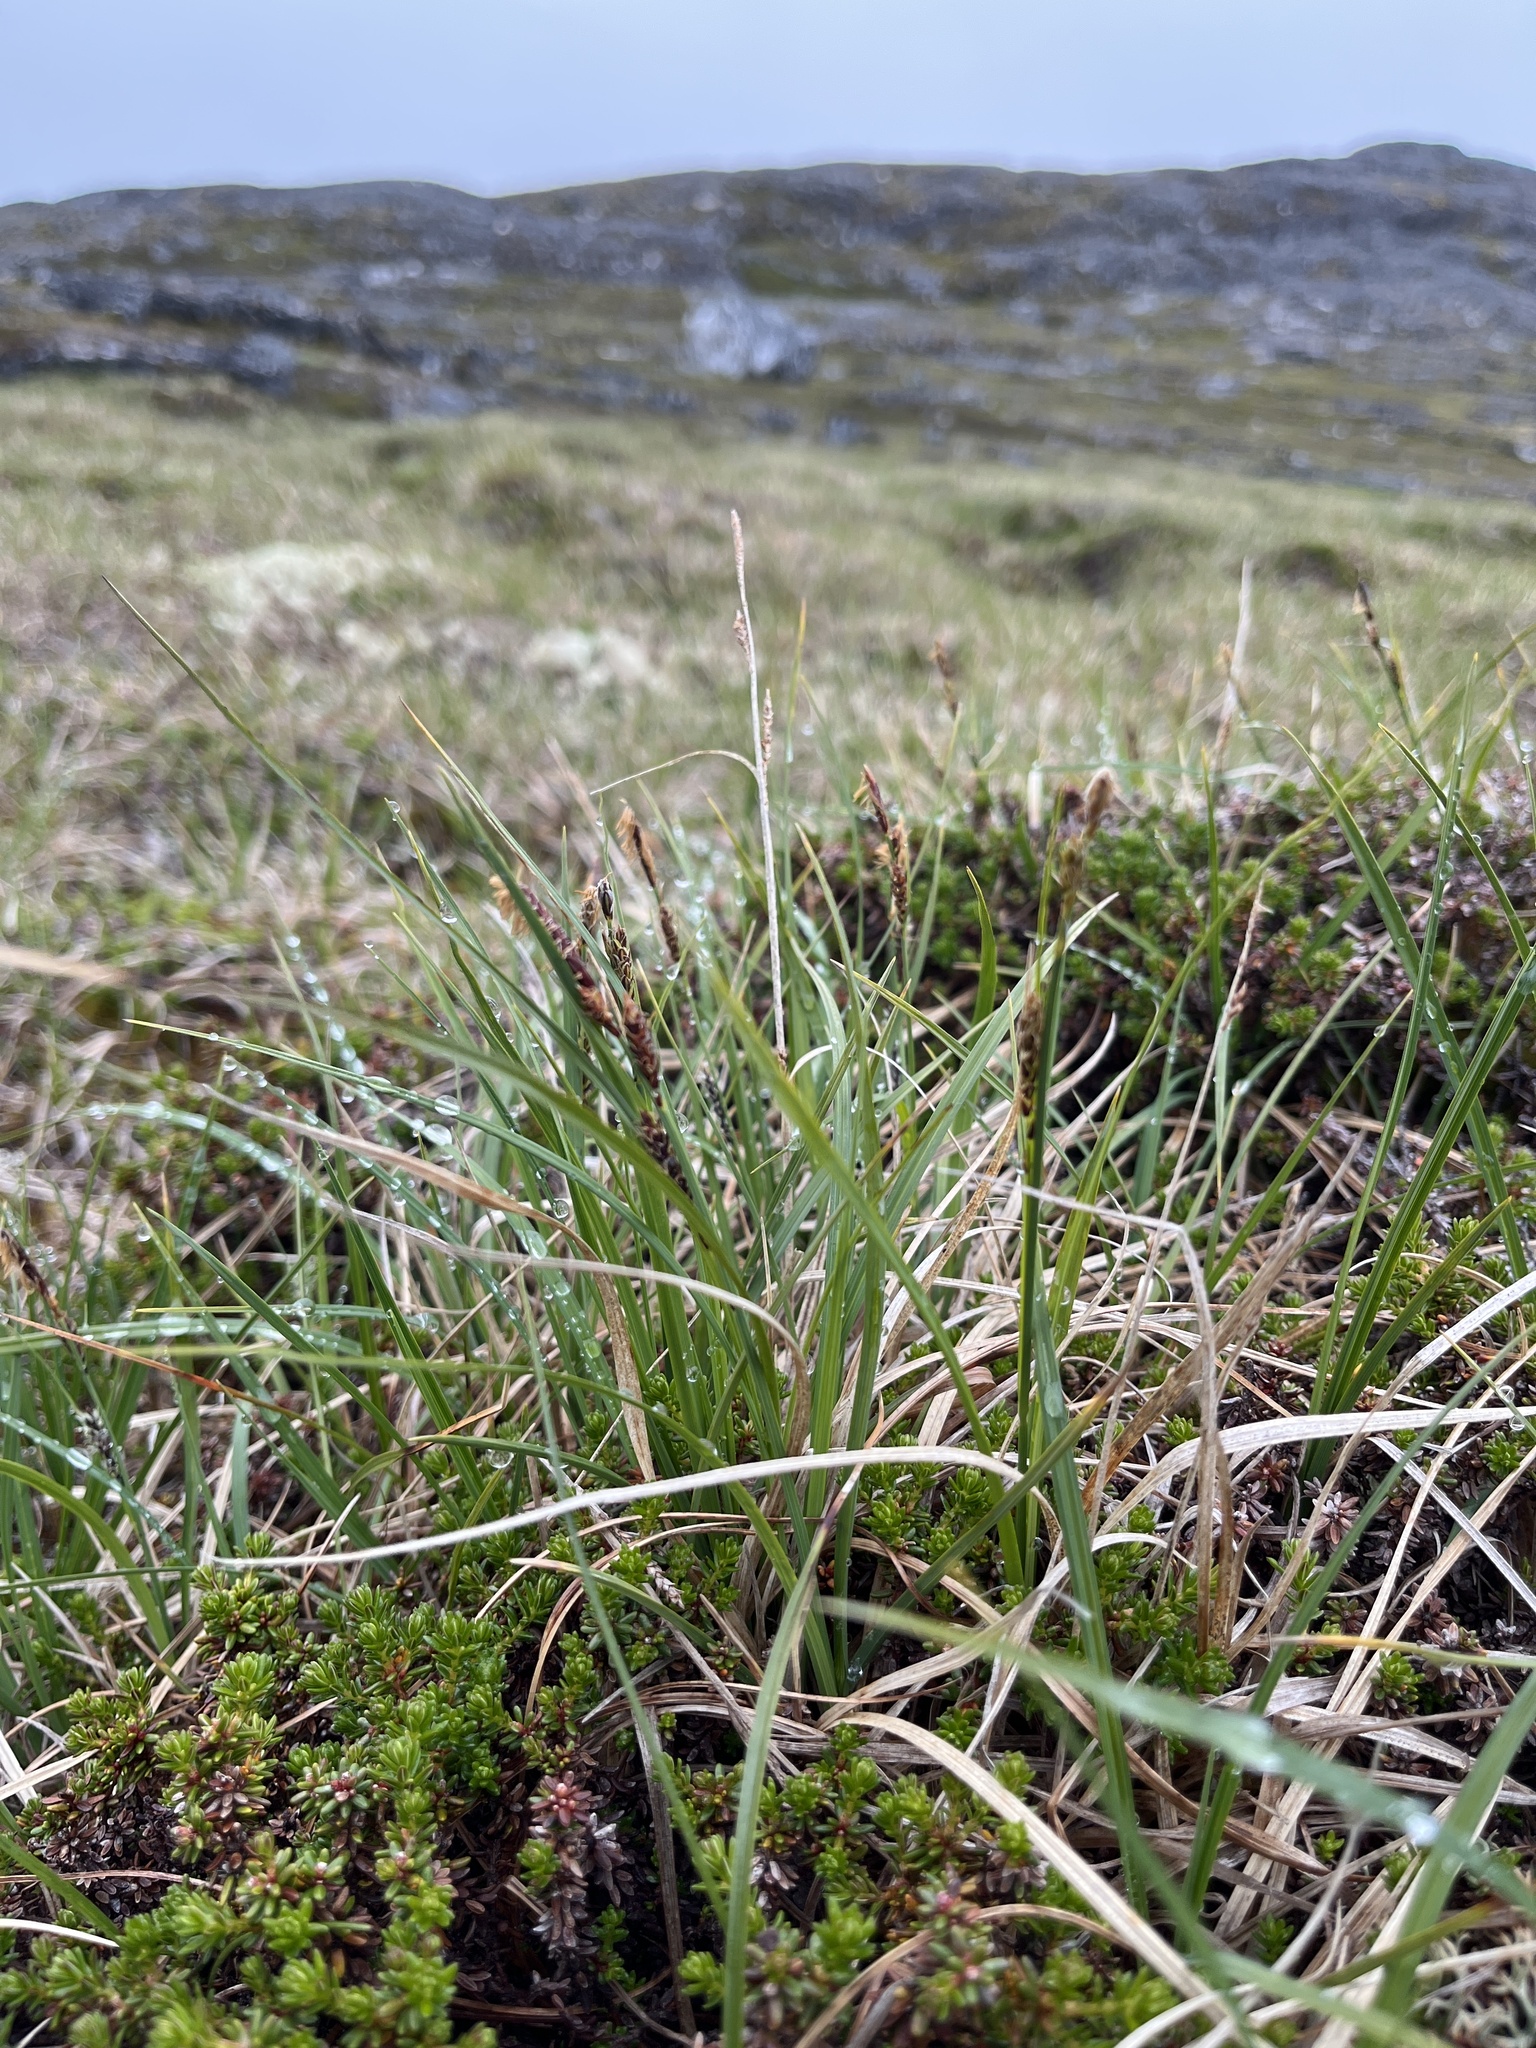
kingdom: Plantae
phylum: Tracheophyta
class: Liliopsida
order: Poales
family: Cyperaceae
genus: Carex
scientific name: Carex bigelowii
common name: Stiff sedge
